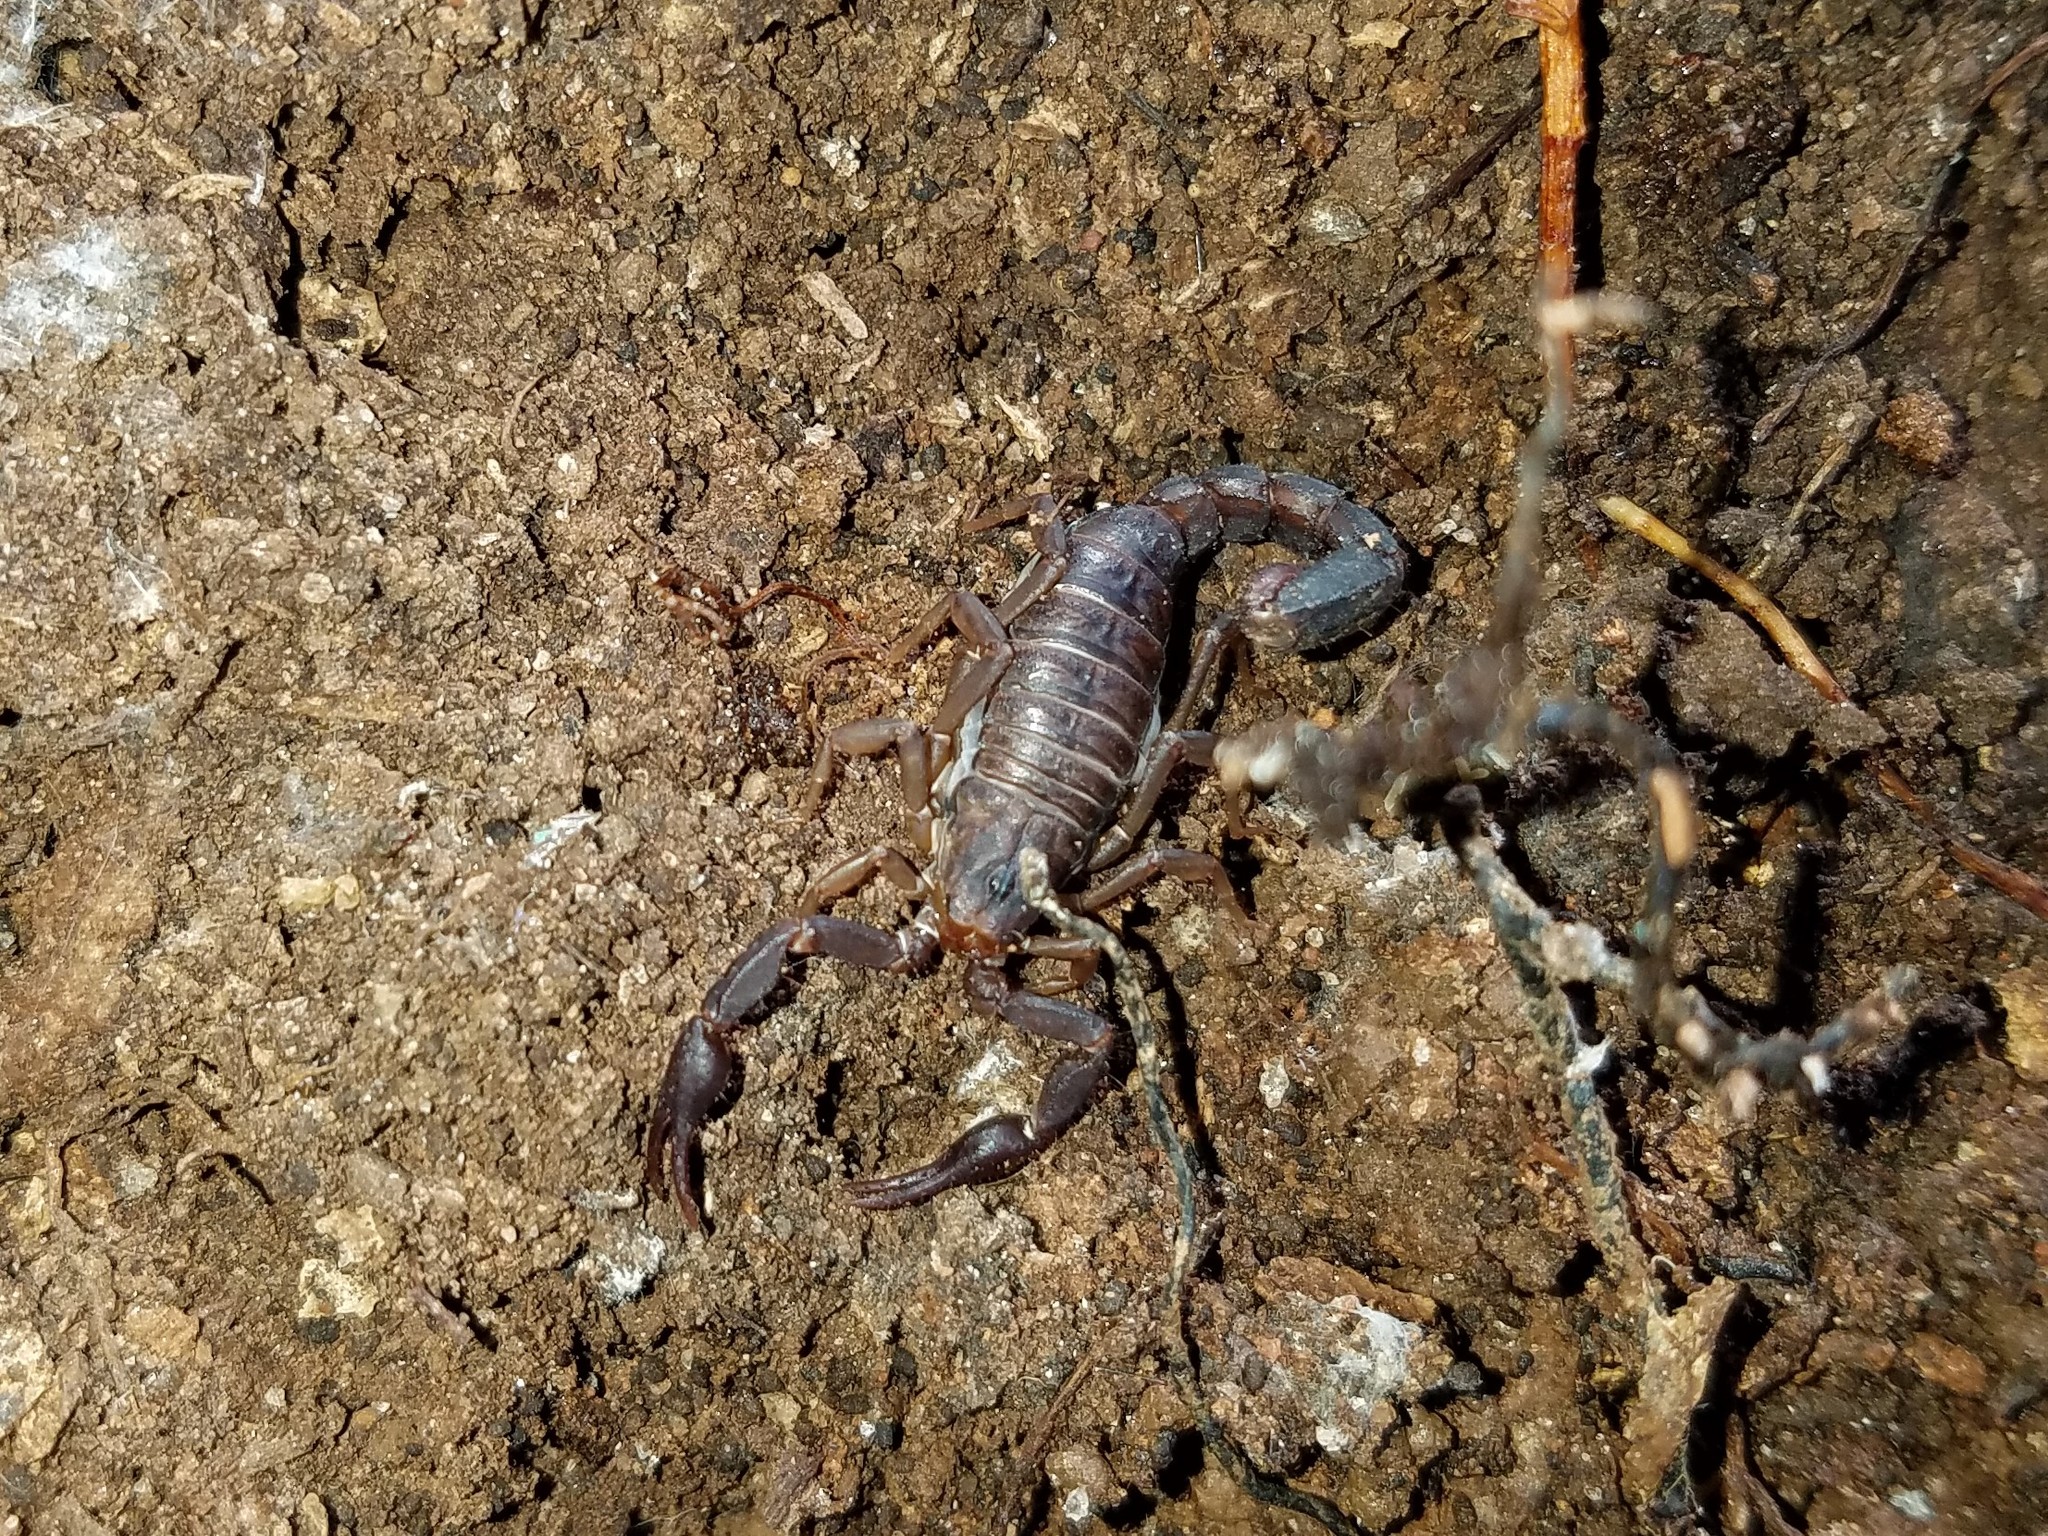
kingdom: Animalia
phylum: Arthropoda
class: Arachnida
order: Scorpiones
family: Vaejovidae
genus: Vaejovis
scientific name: Vaejovis carolinianus
